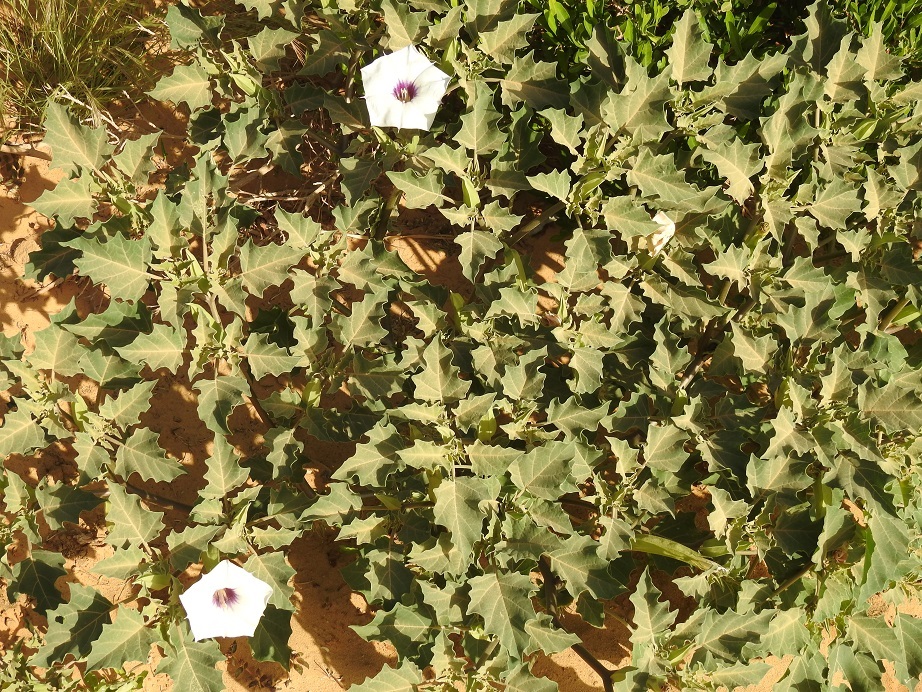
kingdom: Plantae
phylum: Tracheophyta
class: Magnoliopsida
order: Solanales
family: Solanaceae
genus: Datura
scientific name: Datura discolor
